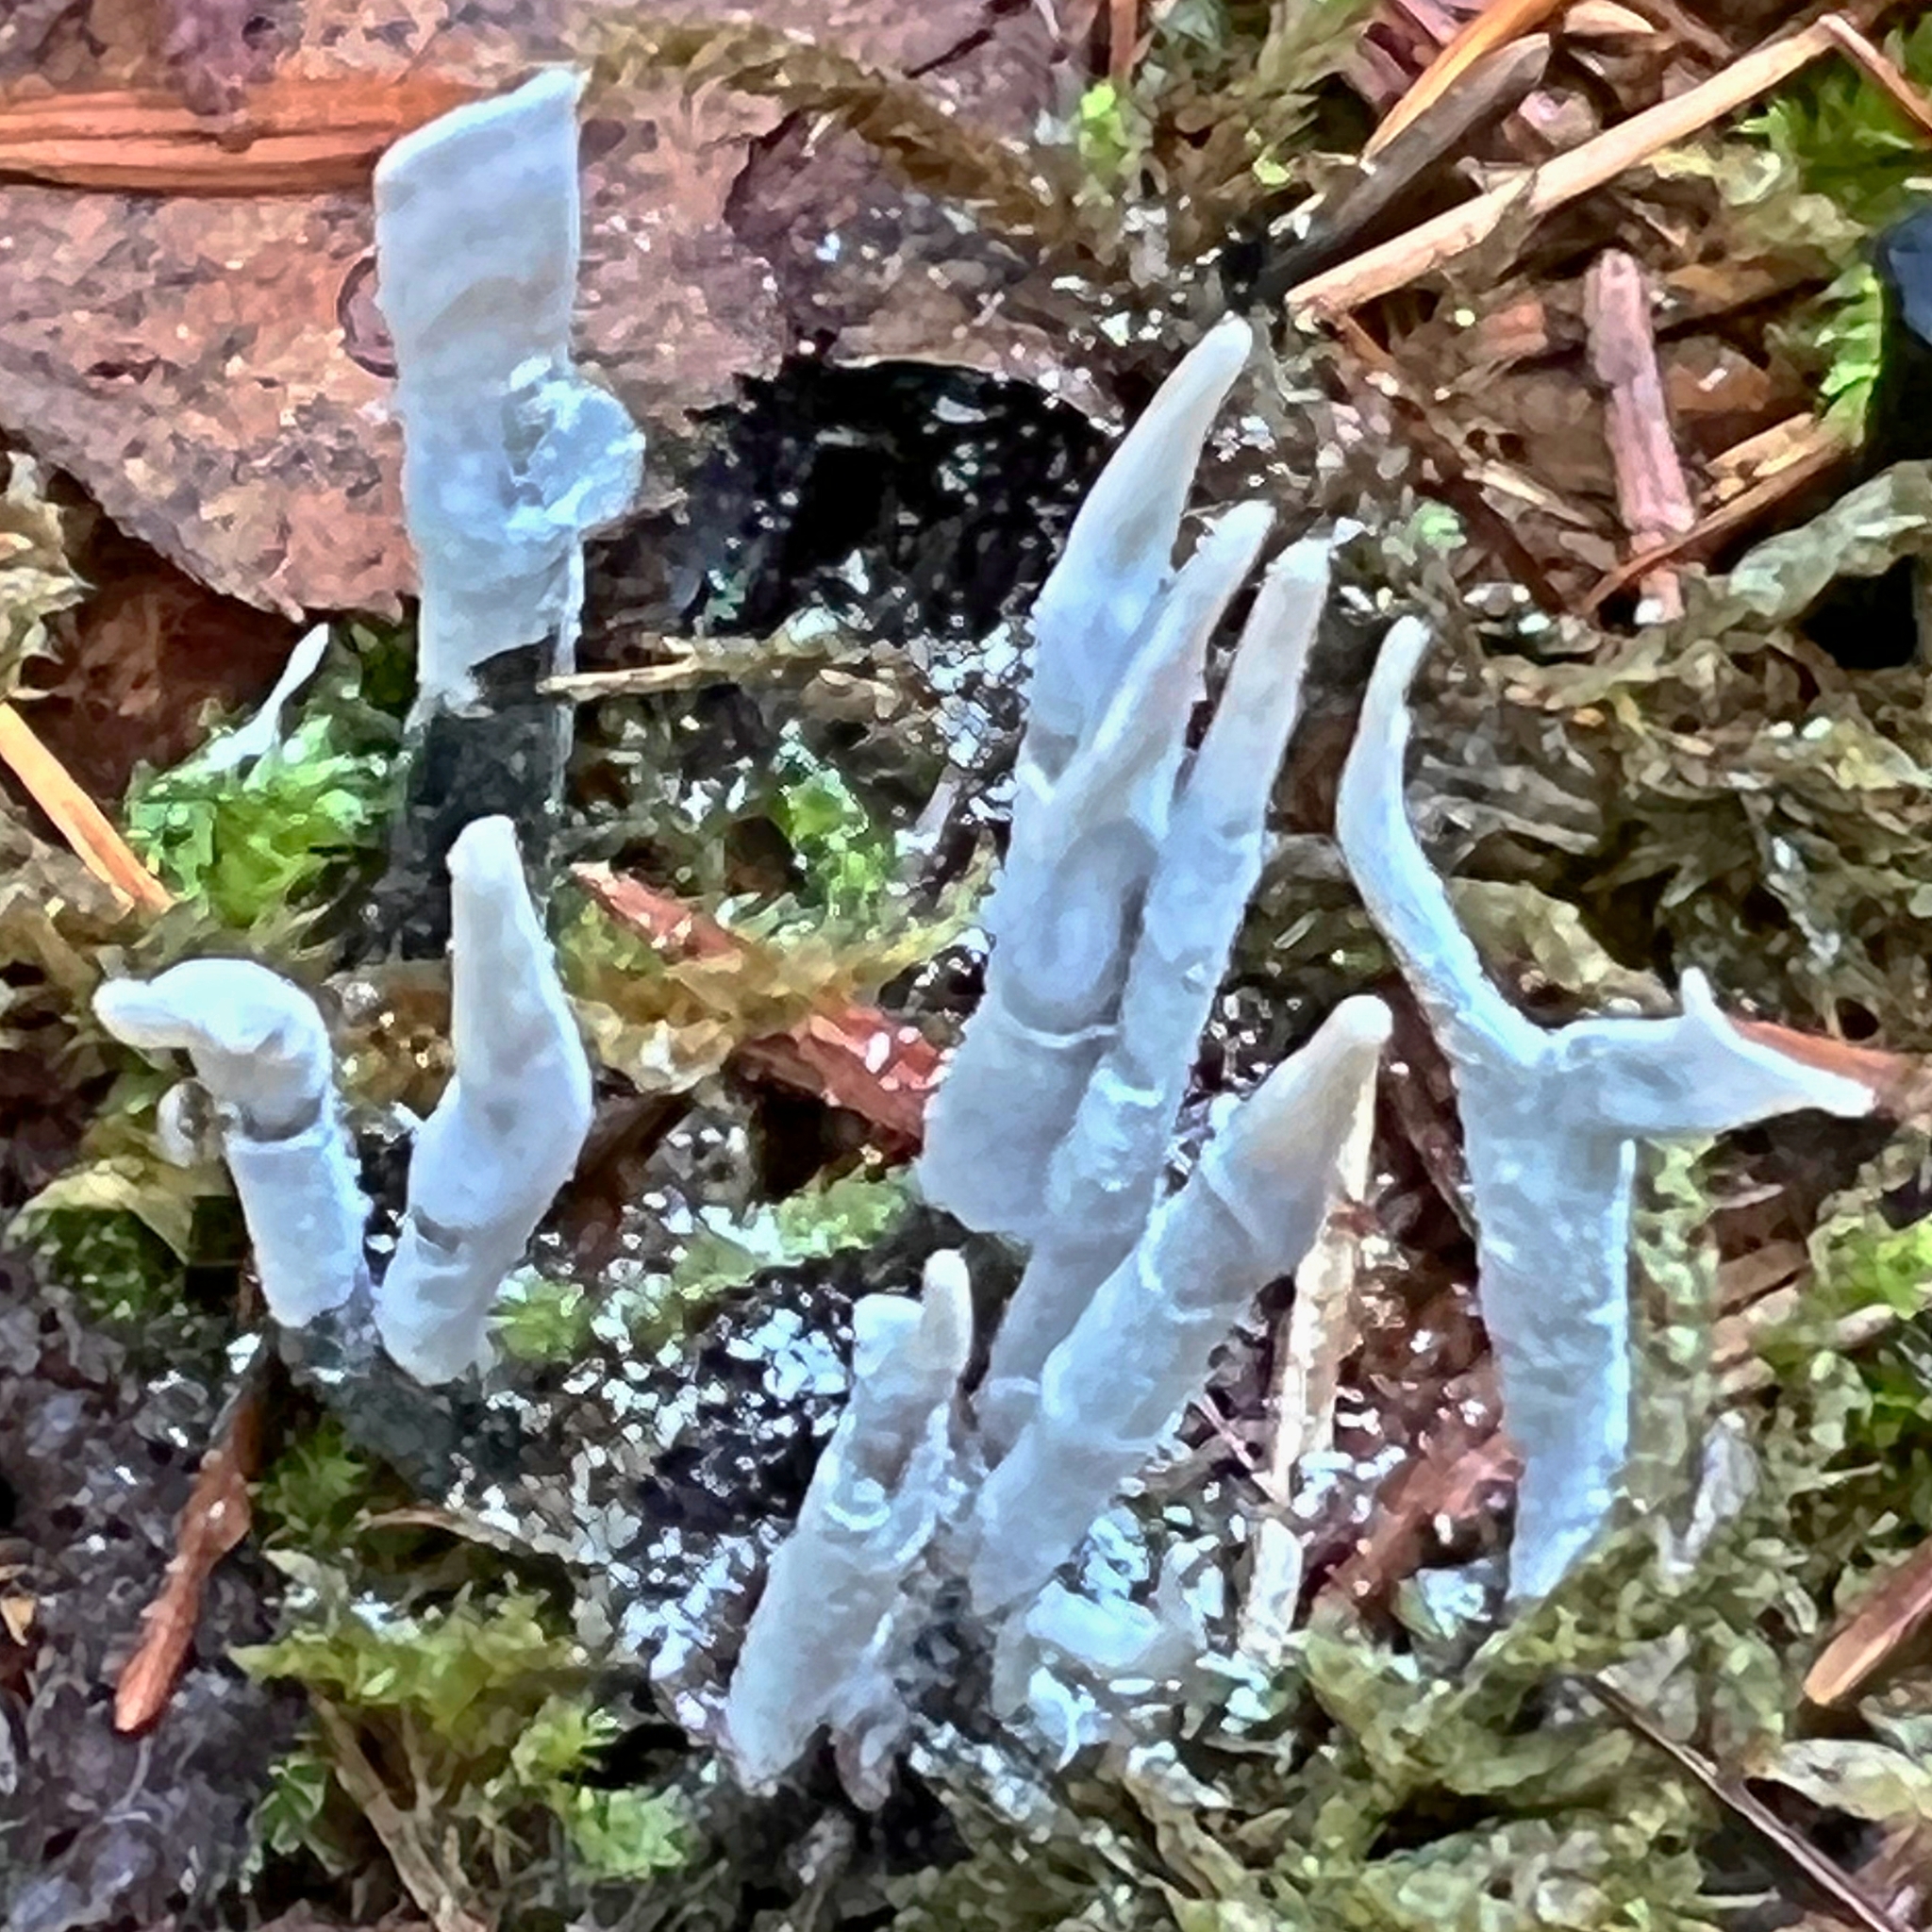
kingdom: Fungi
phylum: Ascomycota
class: Sordariomycetes
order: Xylariales
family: Xylariaceae
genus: Xylaria
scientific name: Xylaria hypoxylon
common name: Candle-snuff fungus
